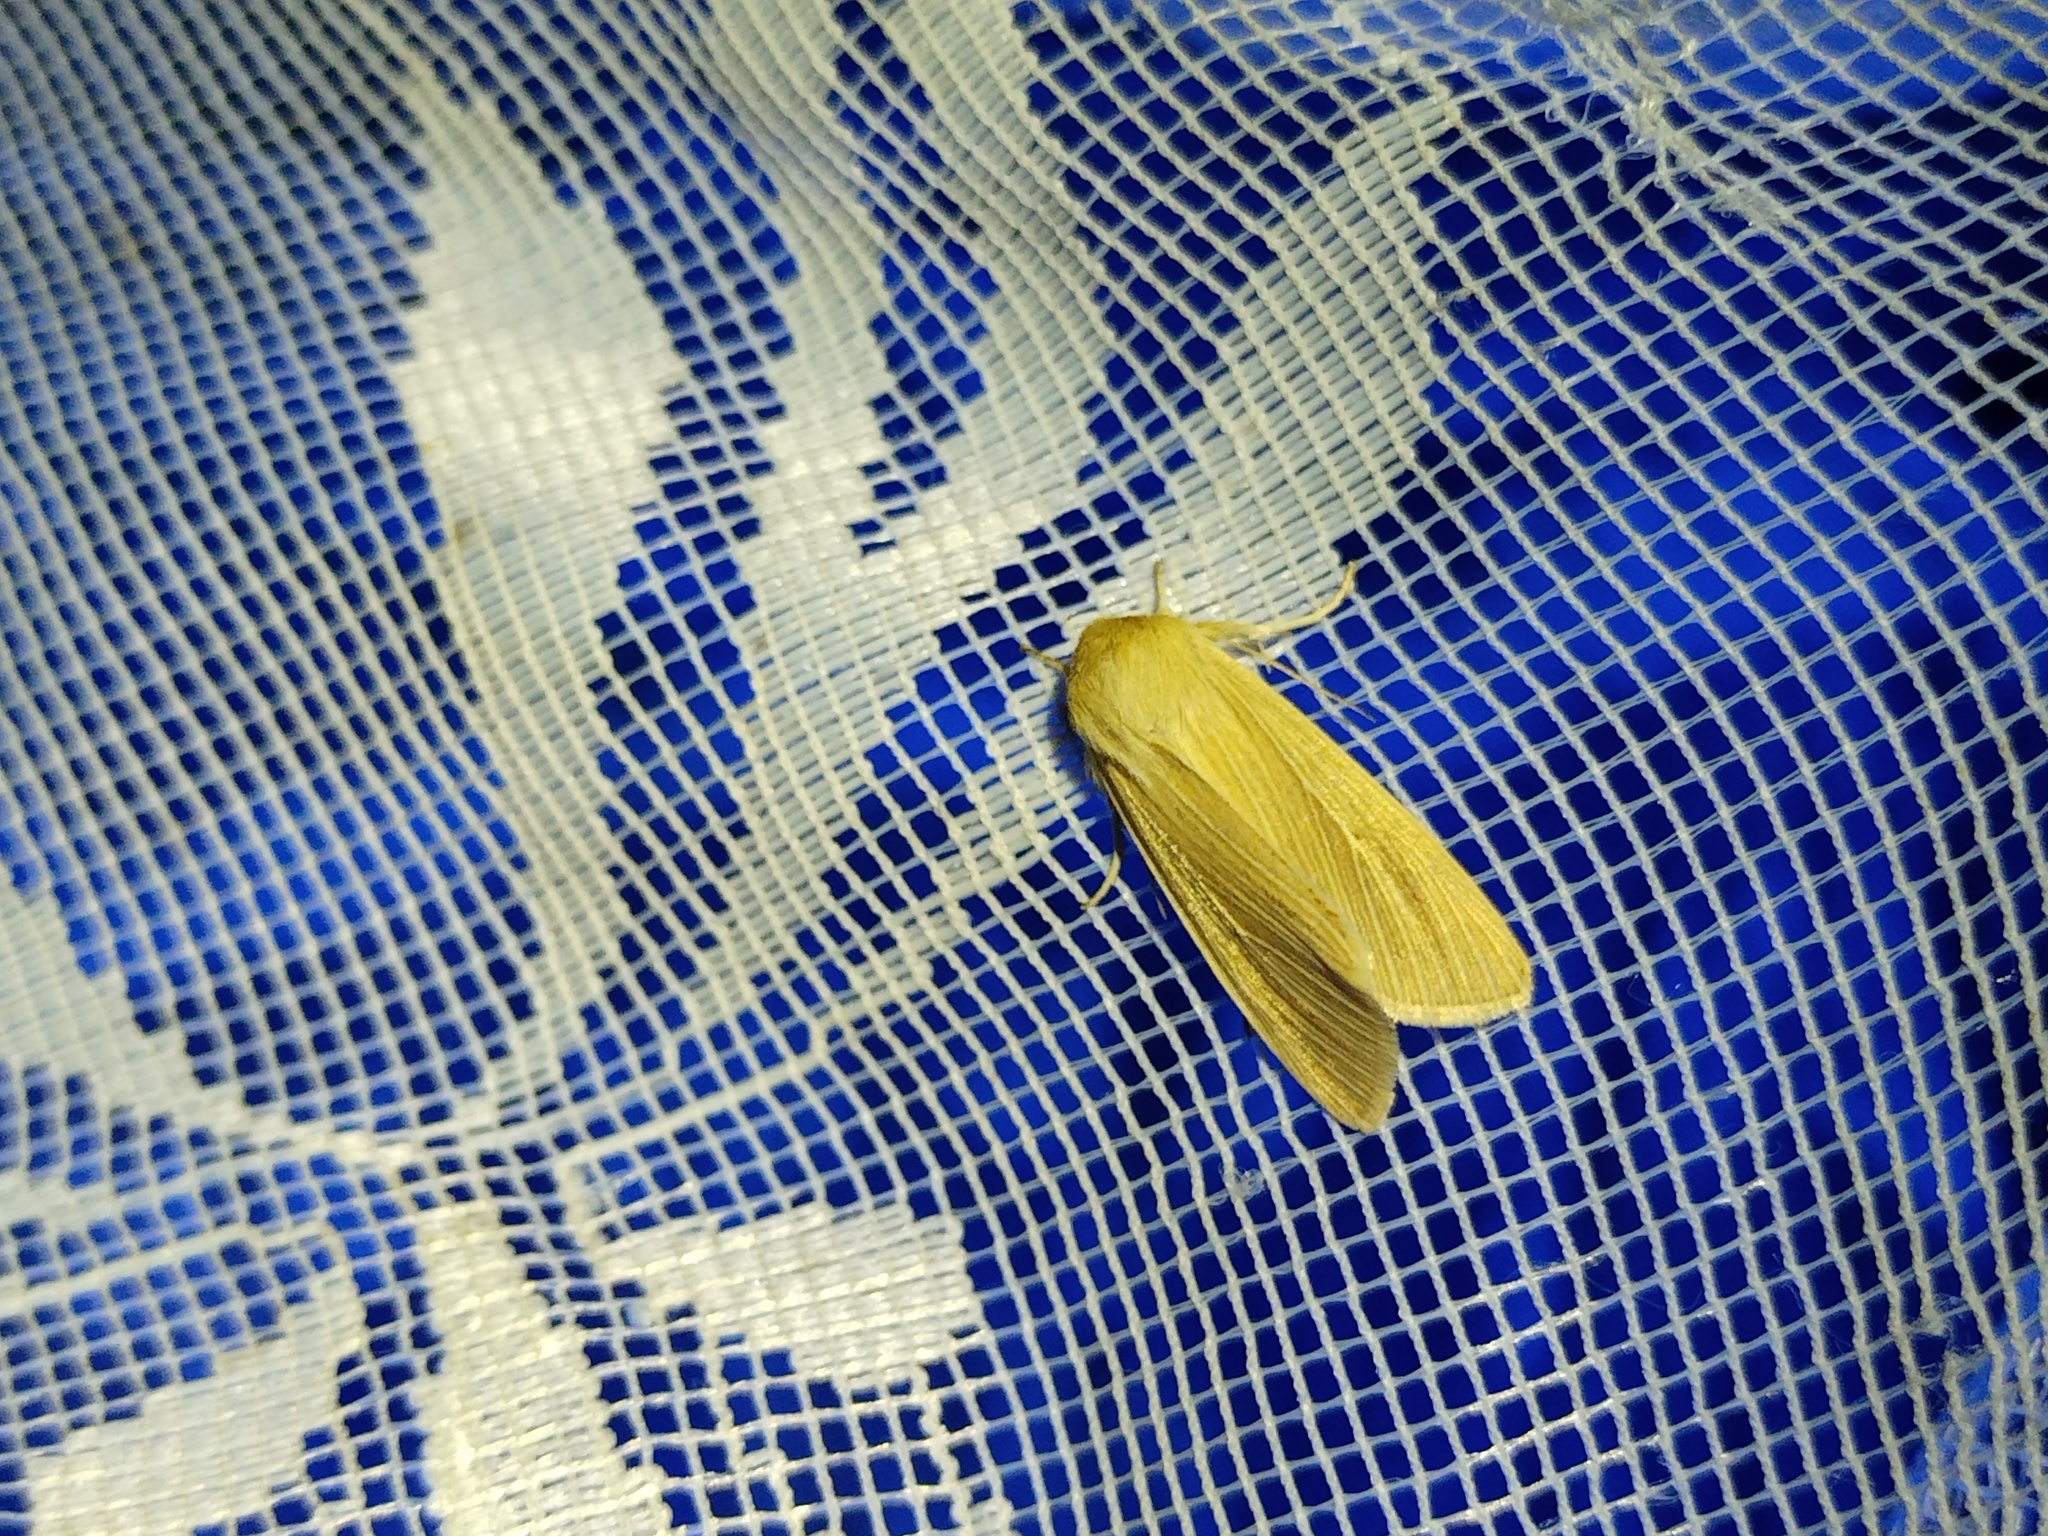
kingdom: Animalia
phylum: Arthropoda
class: Insecta
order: Lepidoptera
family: Noctuidae
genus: Mythimna
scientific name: Mythimna pallens
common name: Common wainscot
